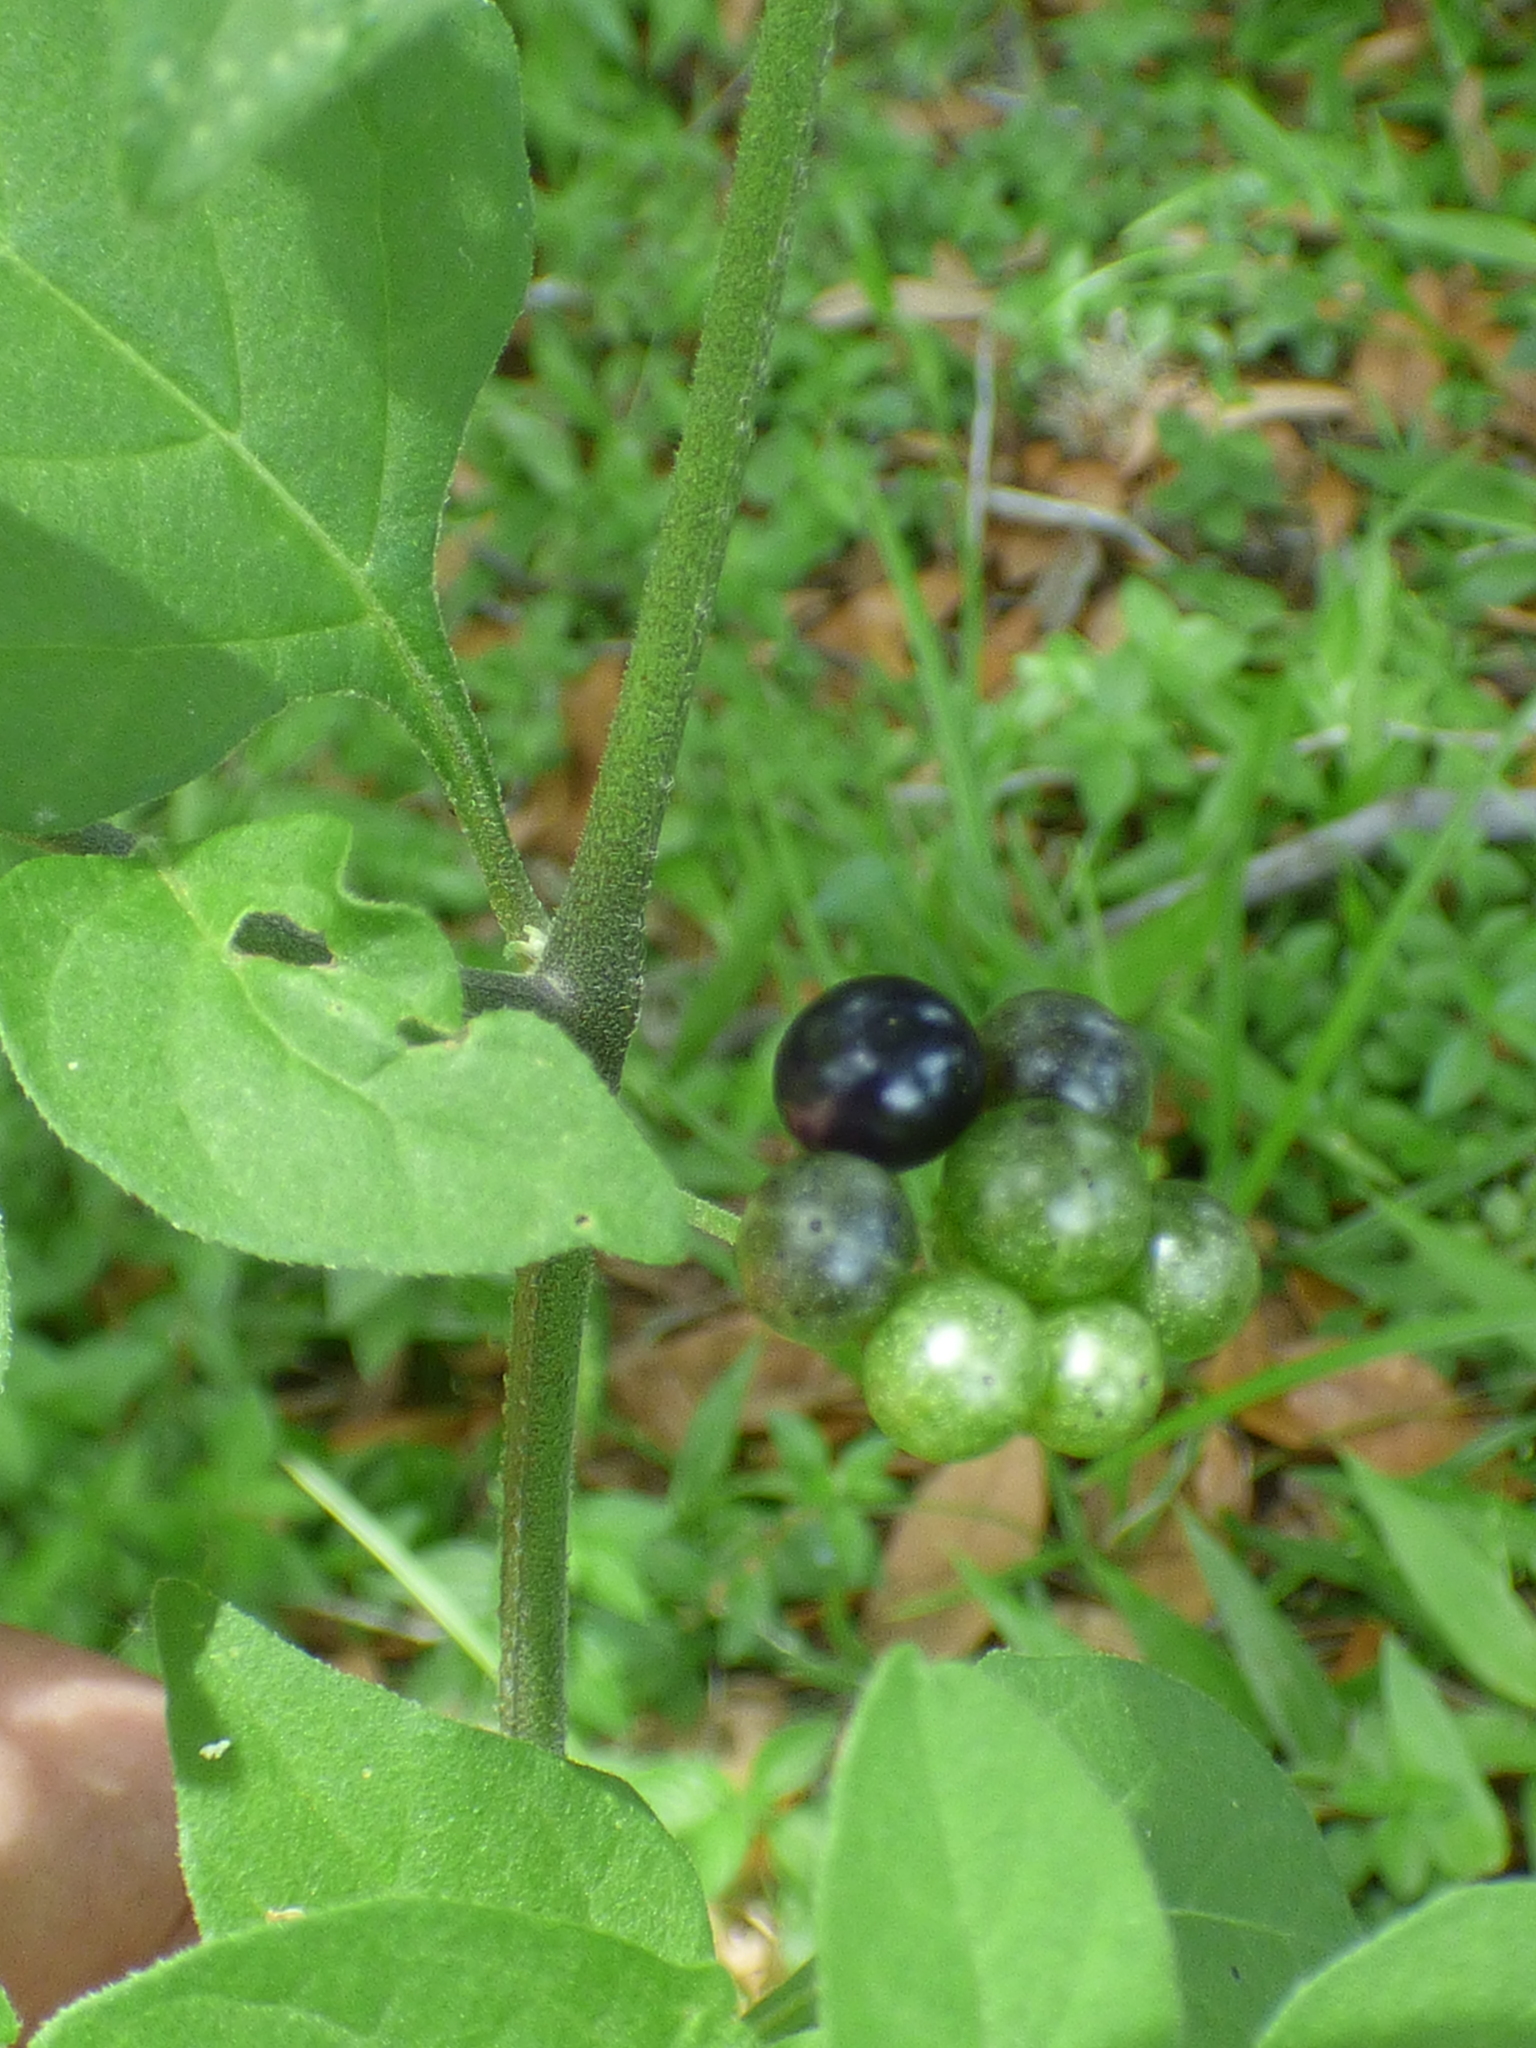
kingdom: Plantae
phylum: Tracheophyta
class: Magnoliopsida
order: Solanales
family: Solanaceae
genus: Solanum
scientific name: Solanum americanum
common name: American black nightshade
